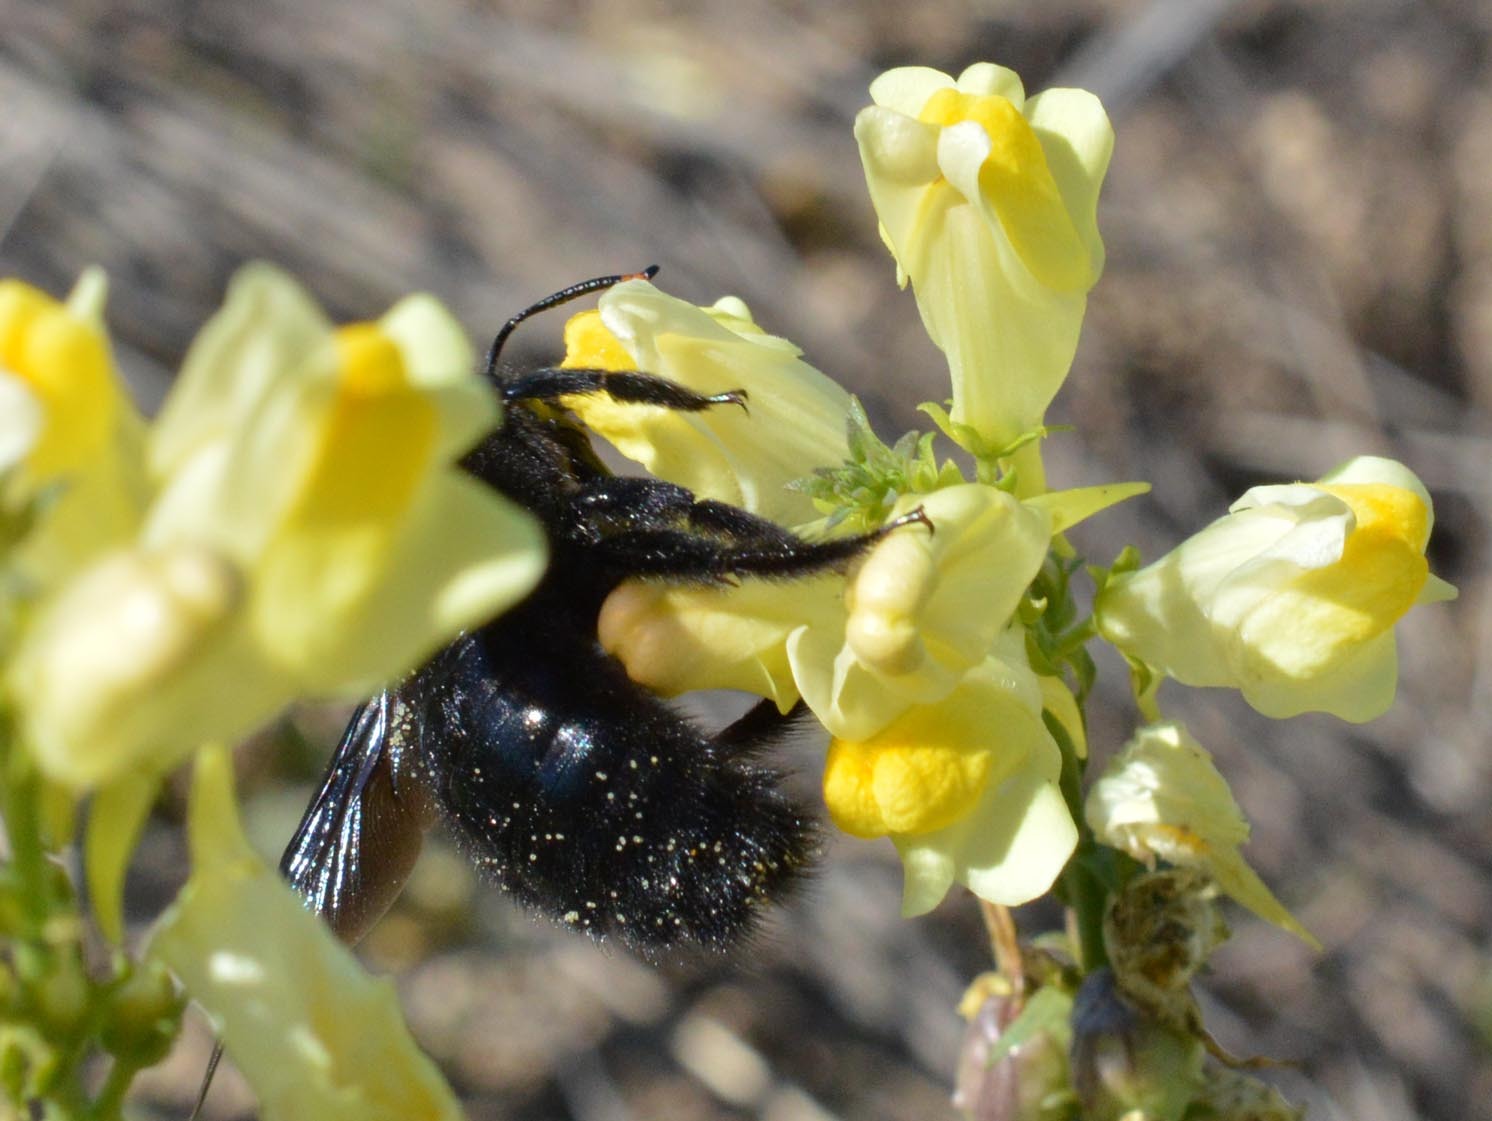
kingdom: Animalia
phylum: Arthropoda
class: Insecta
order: Hymenoptera
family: Apidae
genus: Xylocopa
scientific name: Xylocopa violacea
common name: Violet carpenter bee
